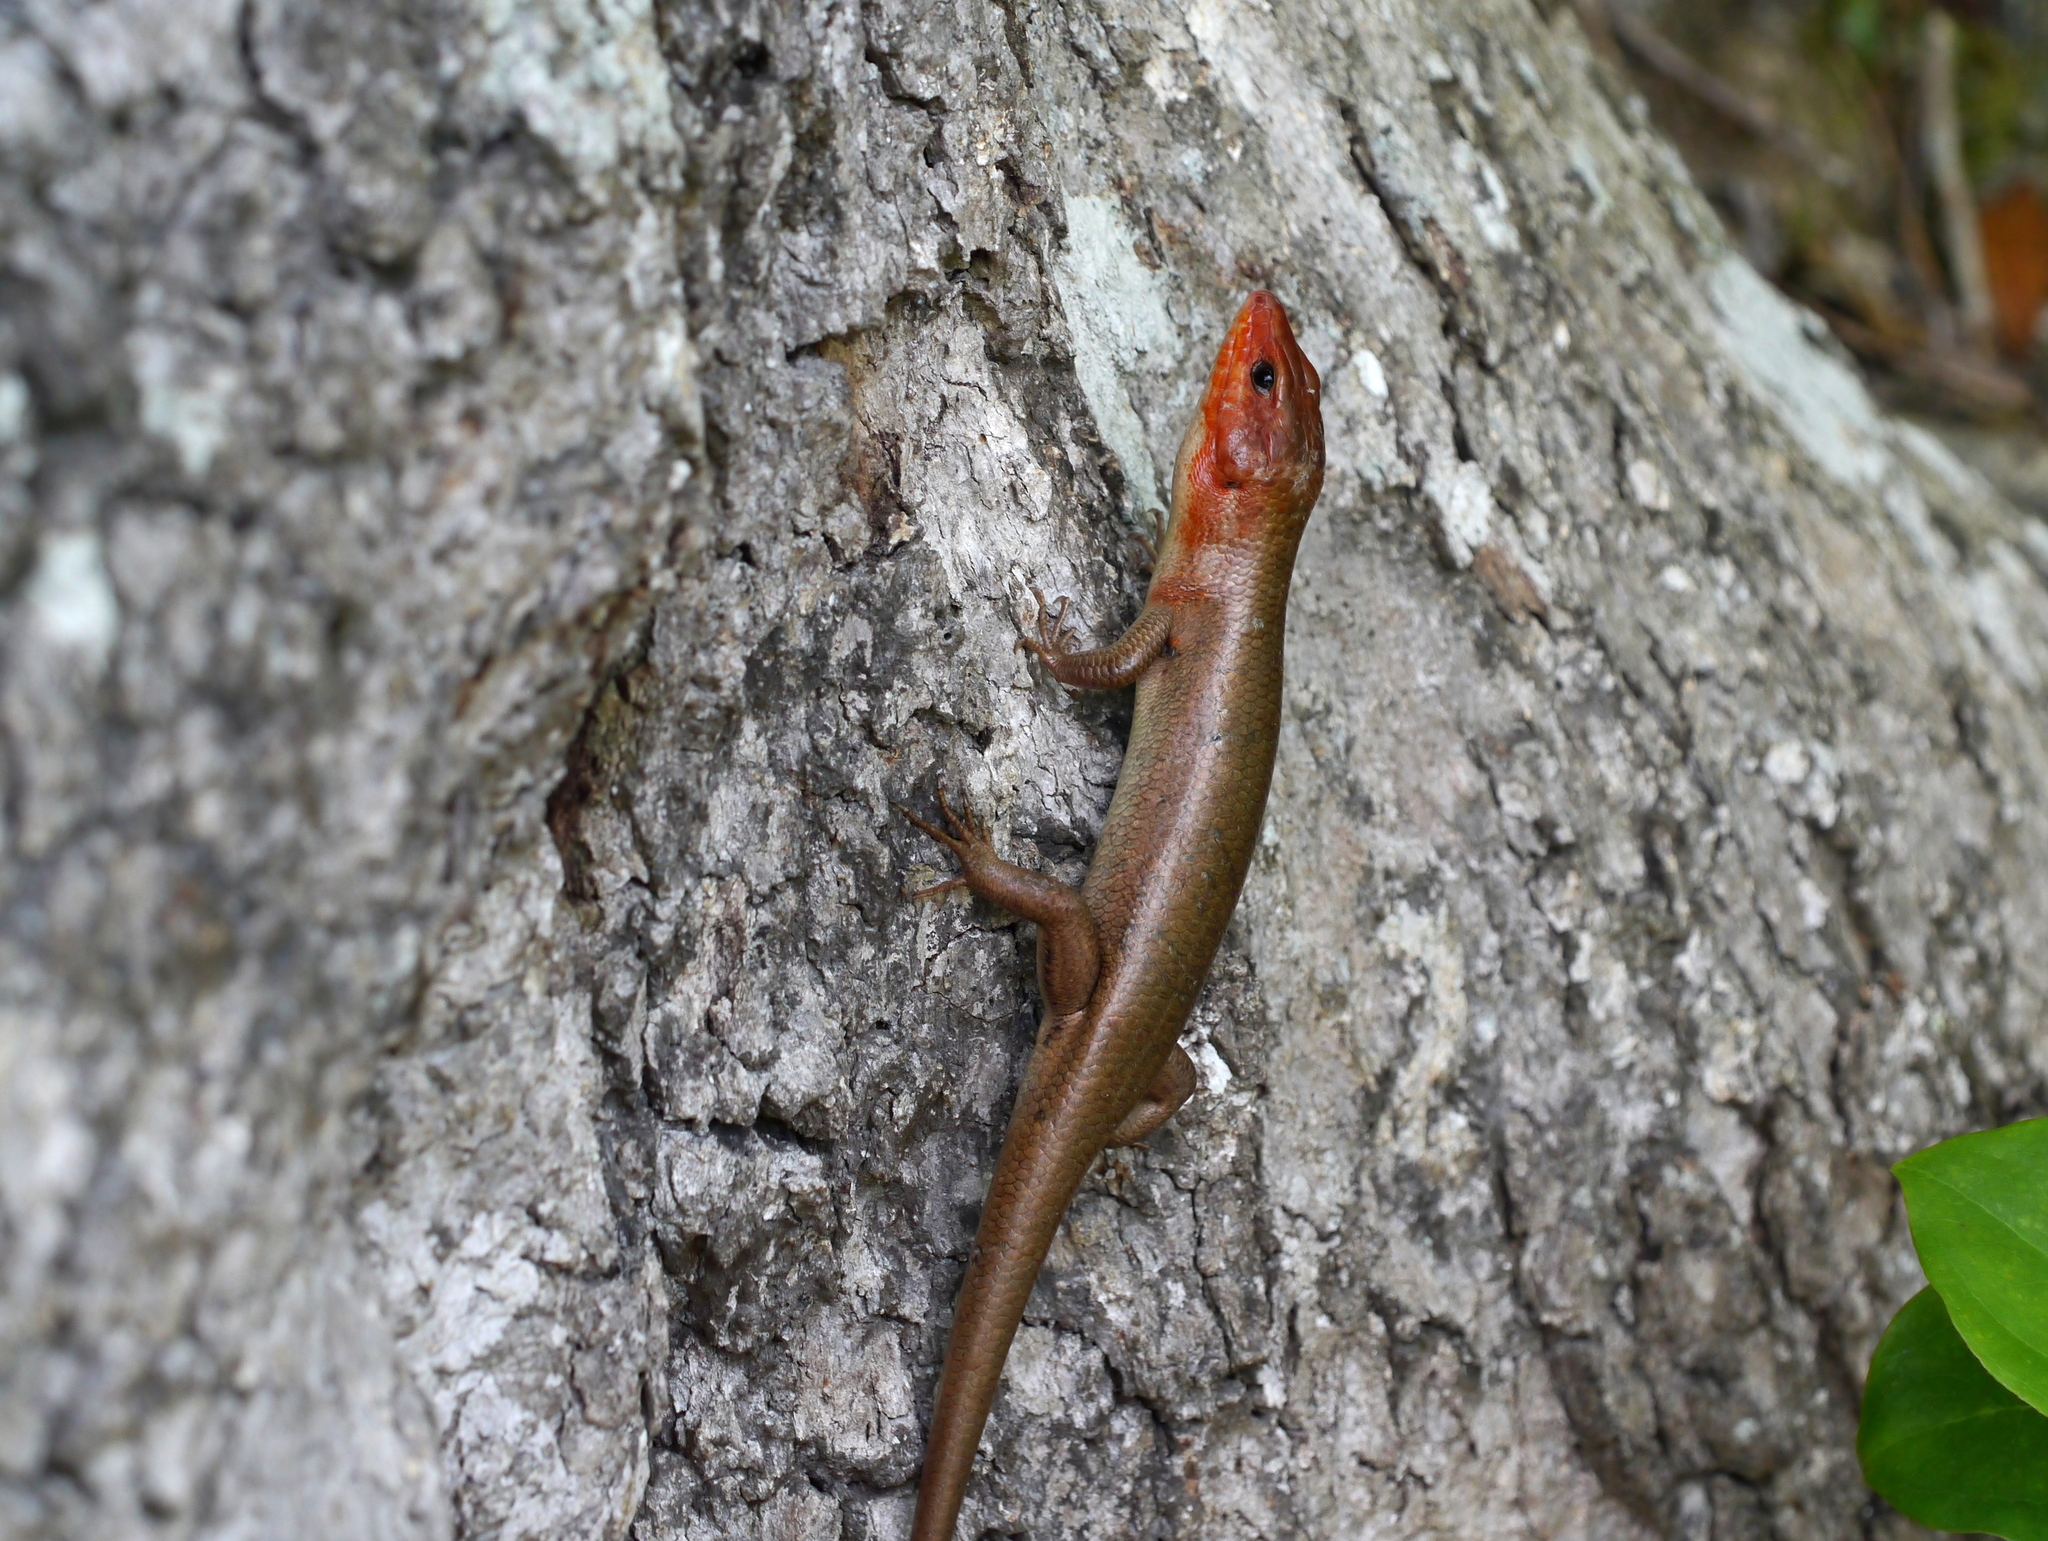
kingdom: Animalia
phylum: Chordata
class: Squamata
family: Scincidae
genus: Plestiodon
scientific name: Plestiodon laticeps
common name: Broadhead skink
